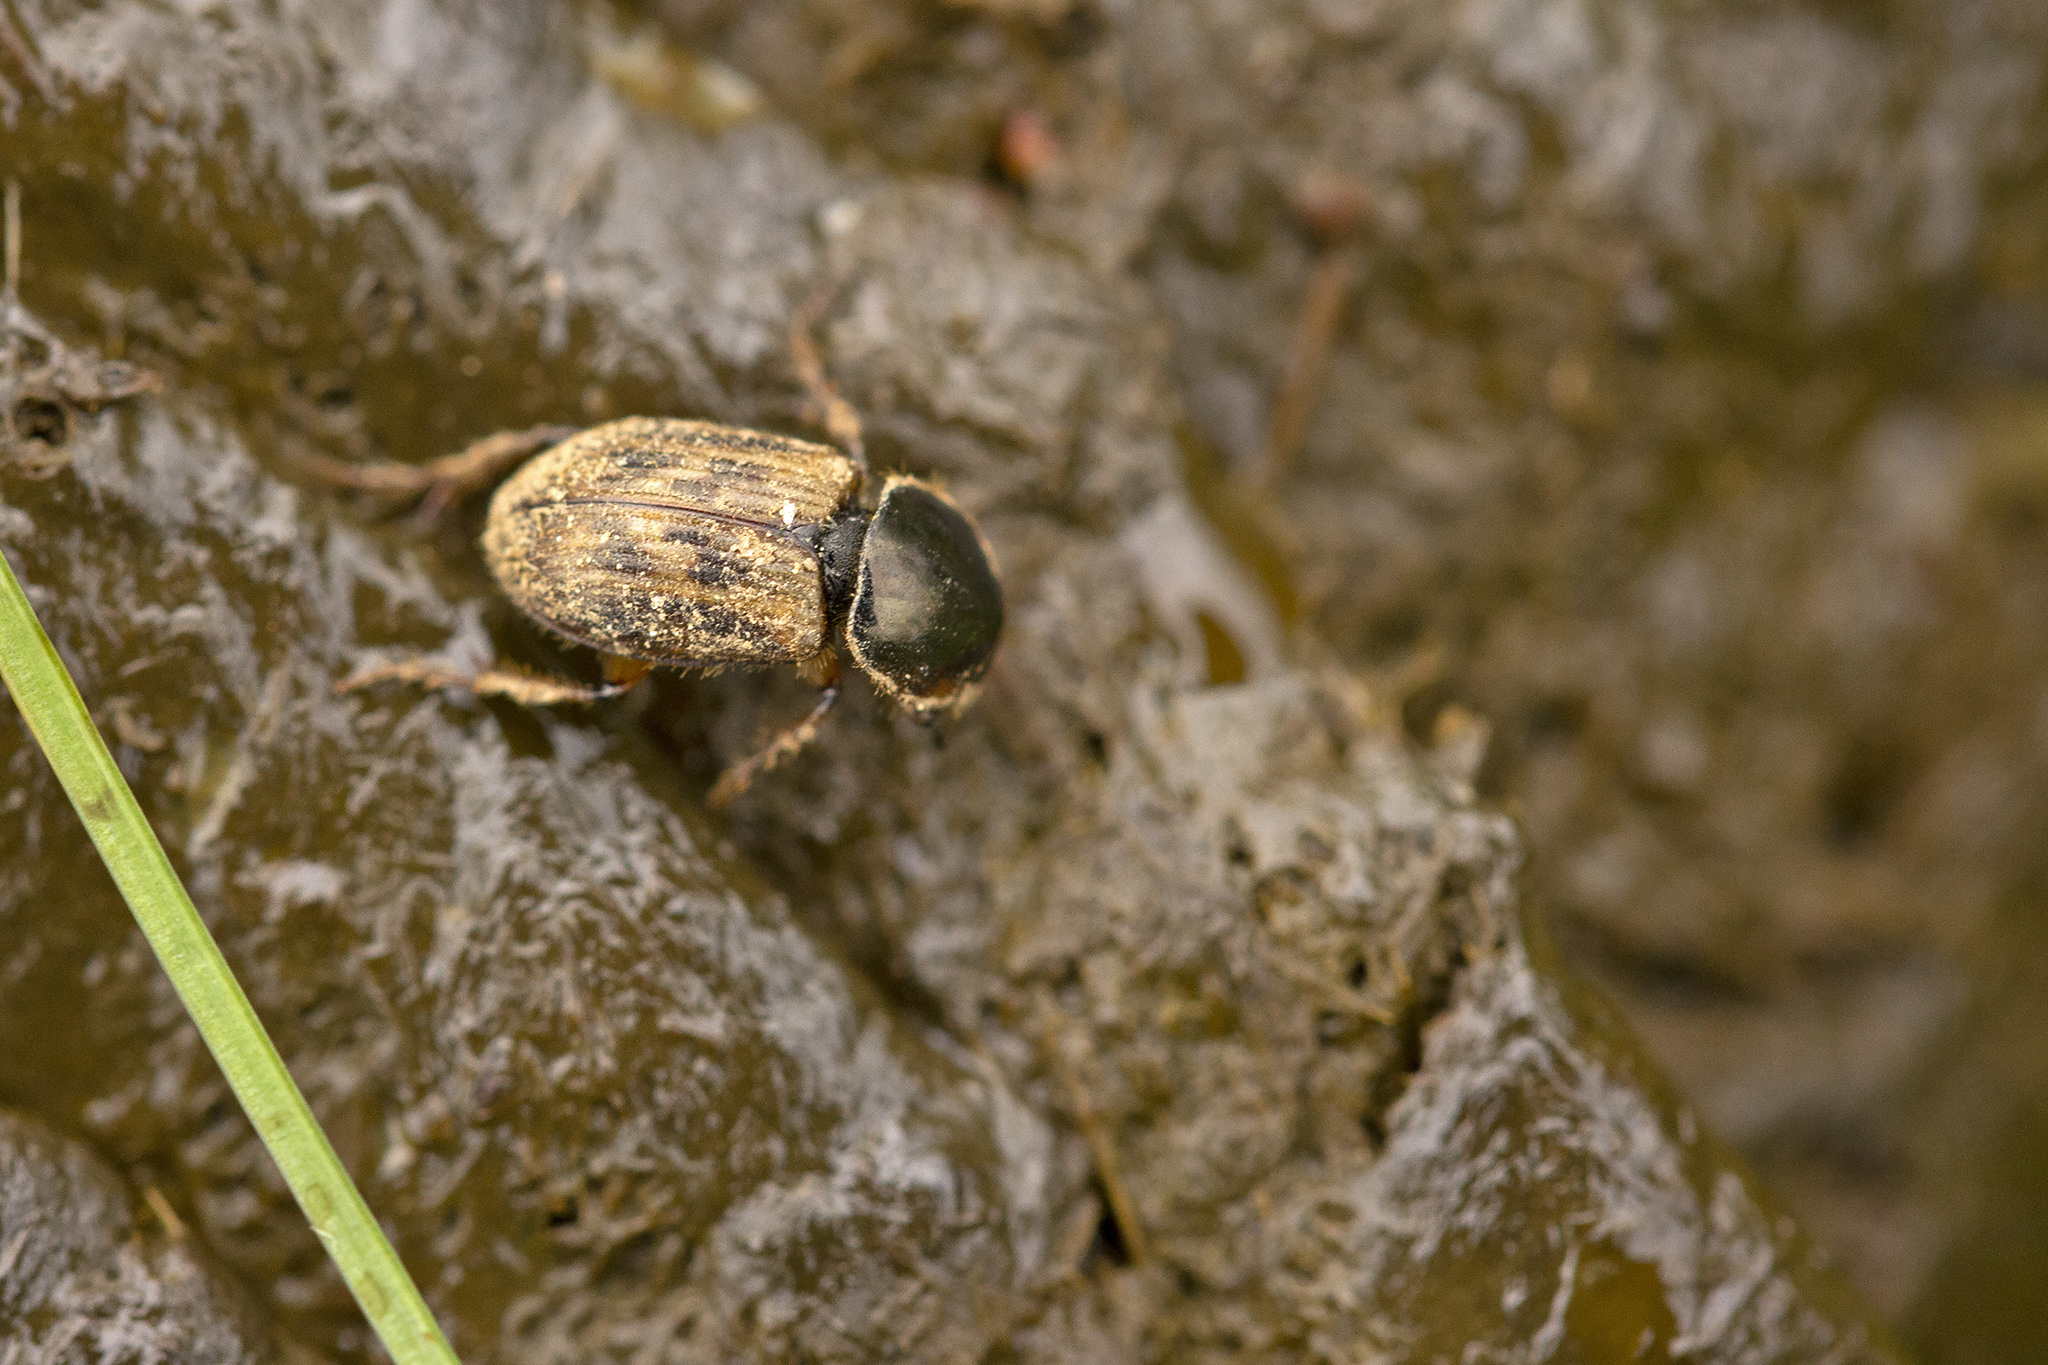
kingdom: Animalia
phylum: Arthropoda
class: Insecta
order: Coleoptera
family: Scarabaeidae
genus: Nimbus
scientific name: Nimbus contaminatus
